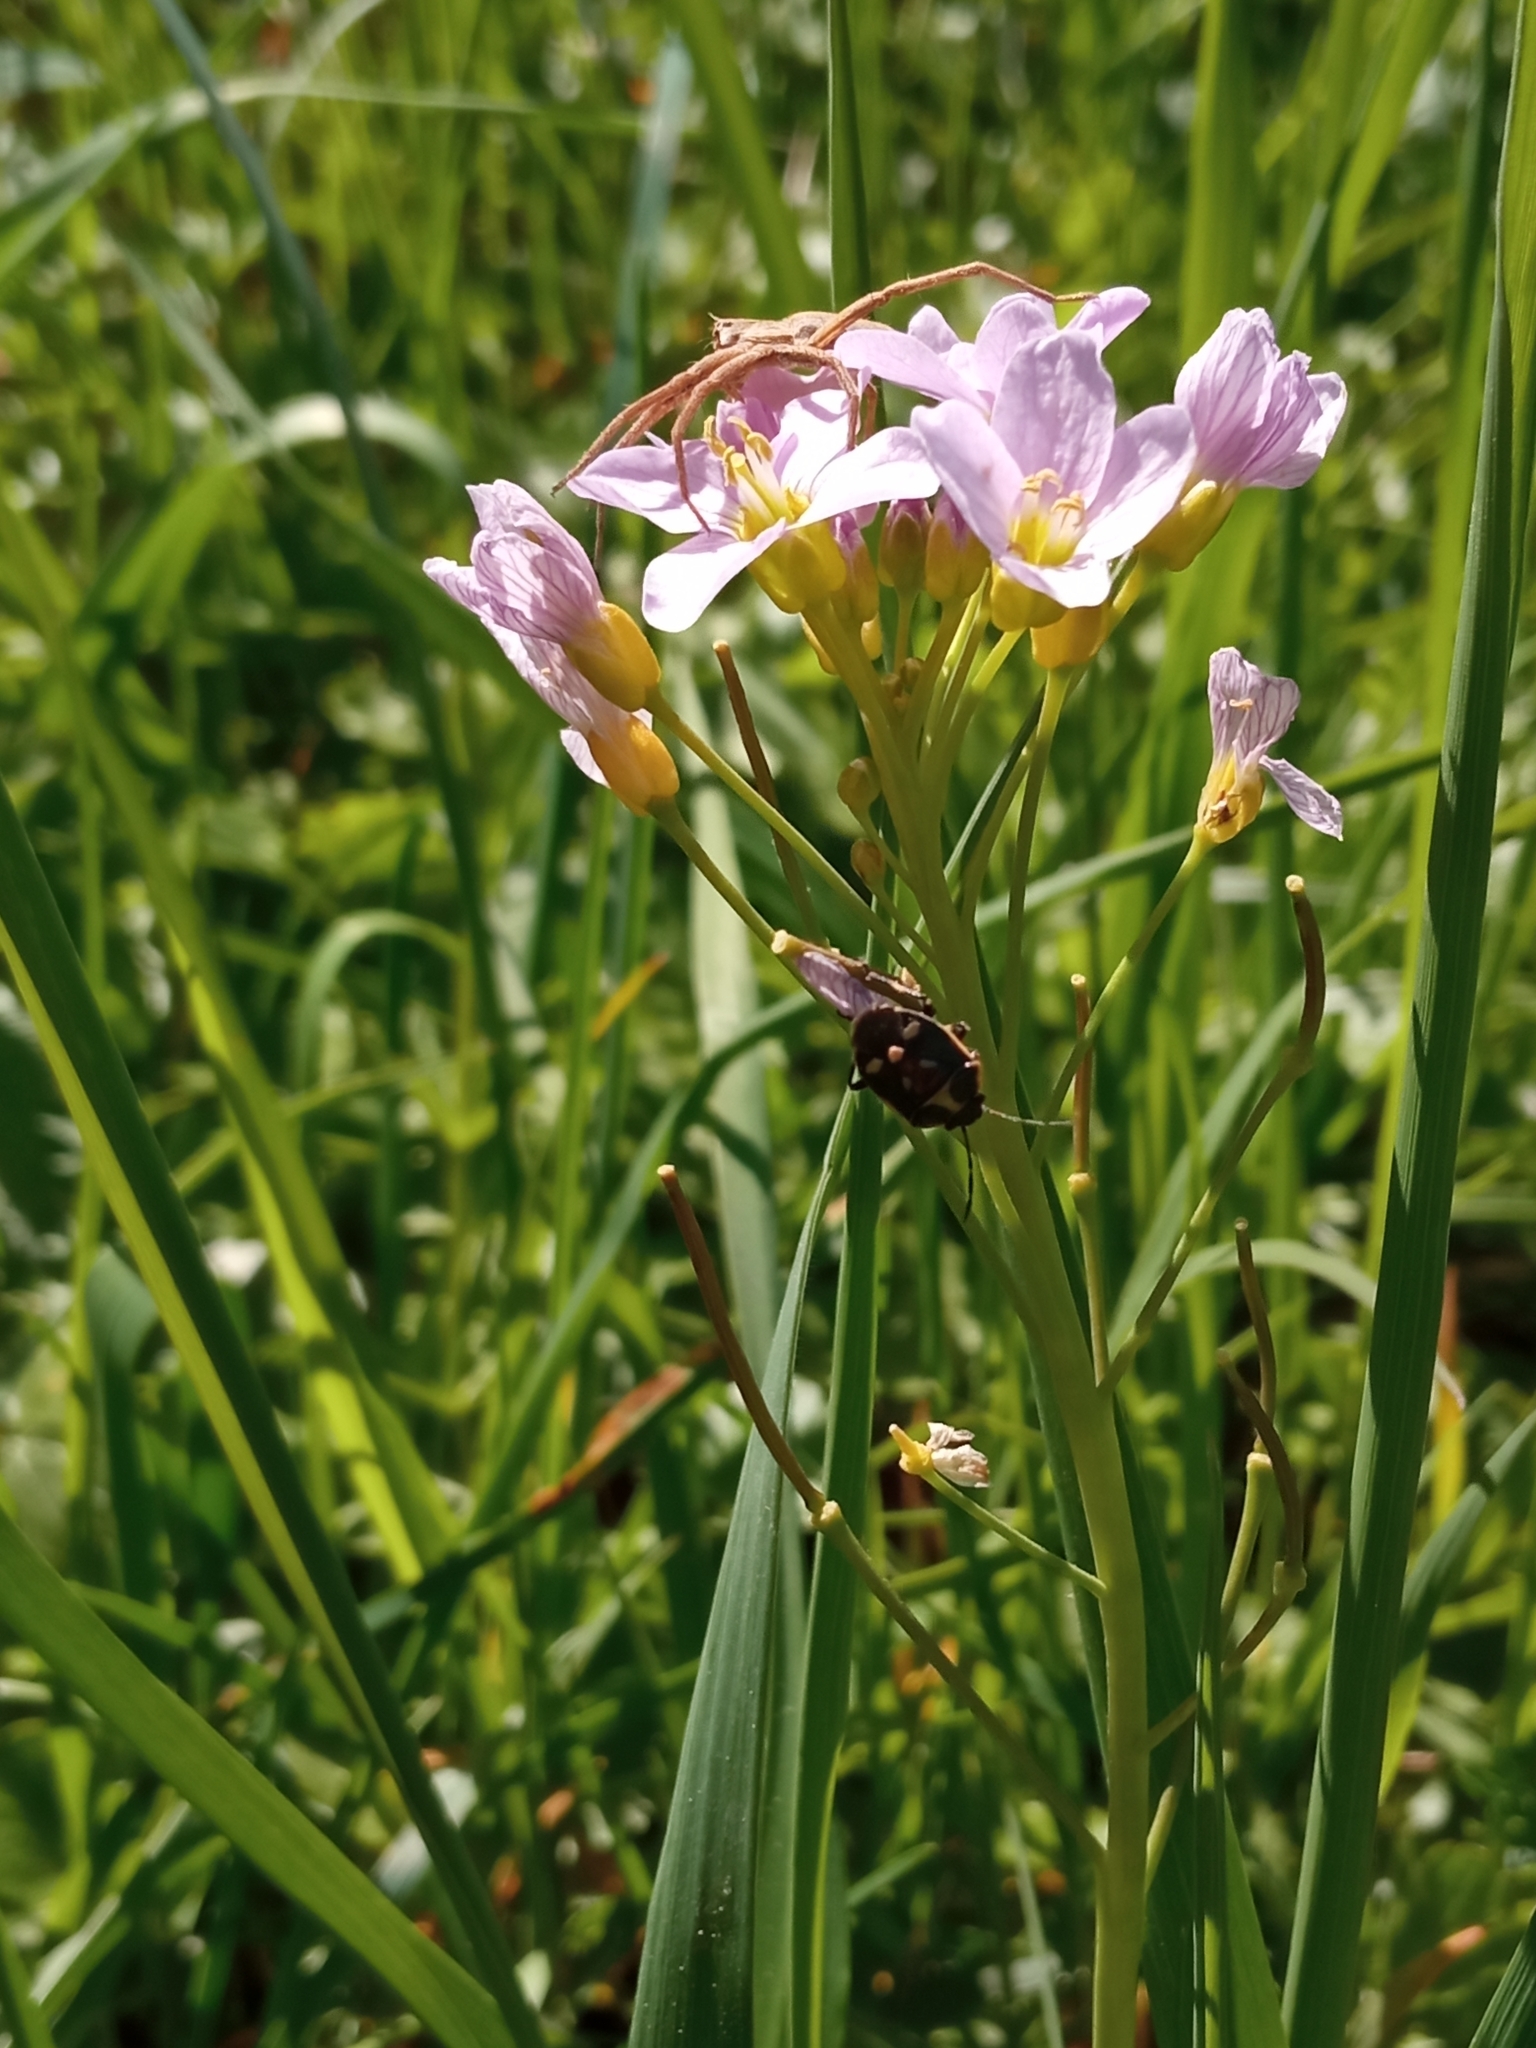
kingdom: Animalia
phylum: Arthropoda
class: Insecta
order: Hemiptera
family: Pentatomidae
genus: Eurydema
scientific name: Eurydema oleracea
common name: Cabbage bug
